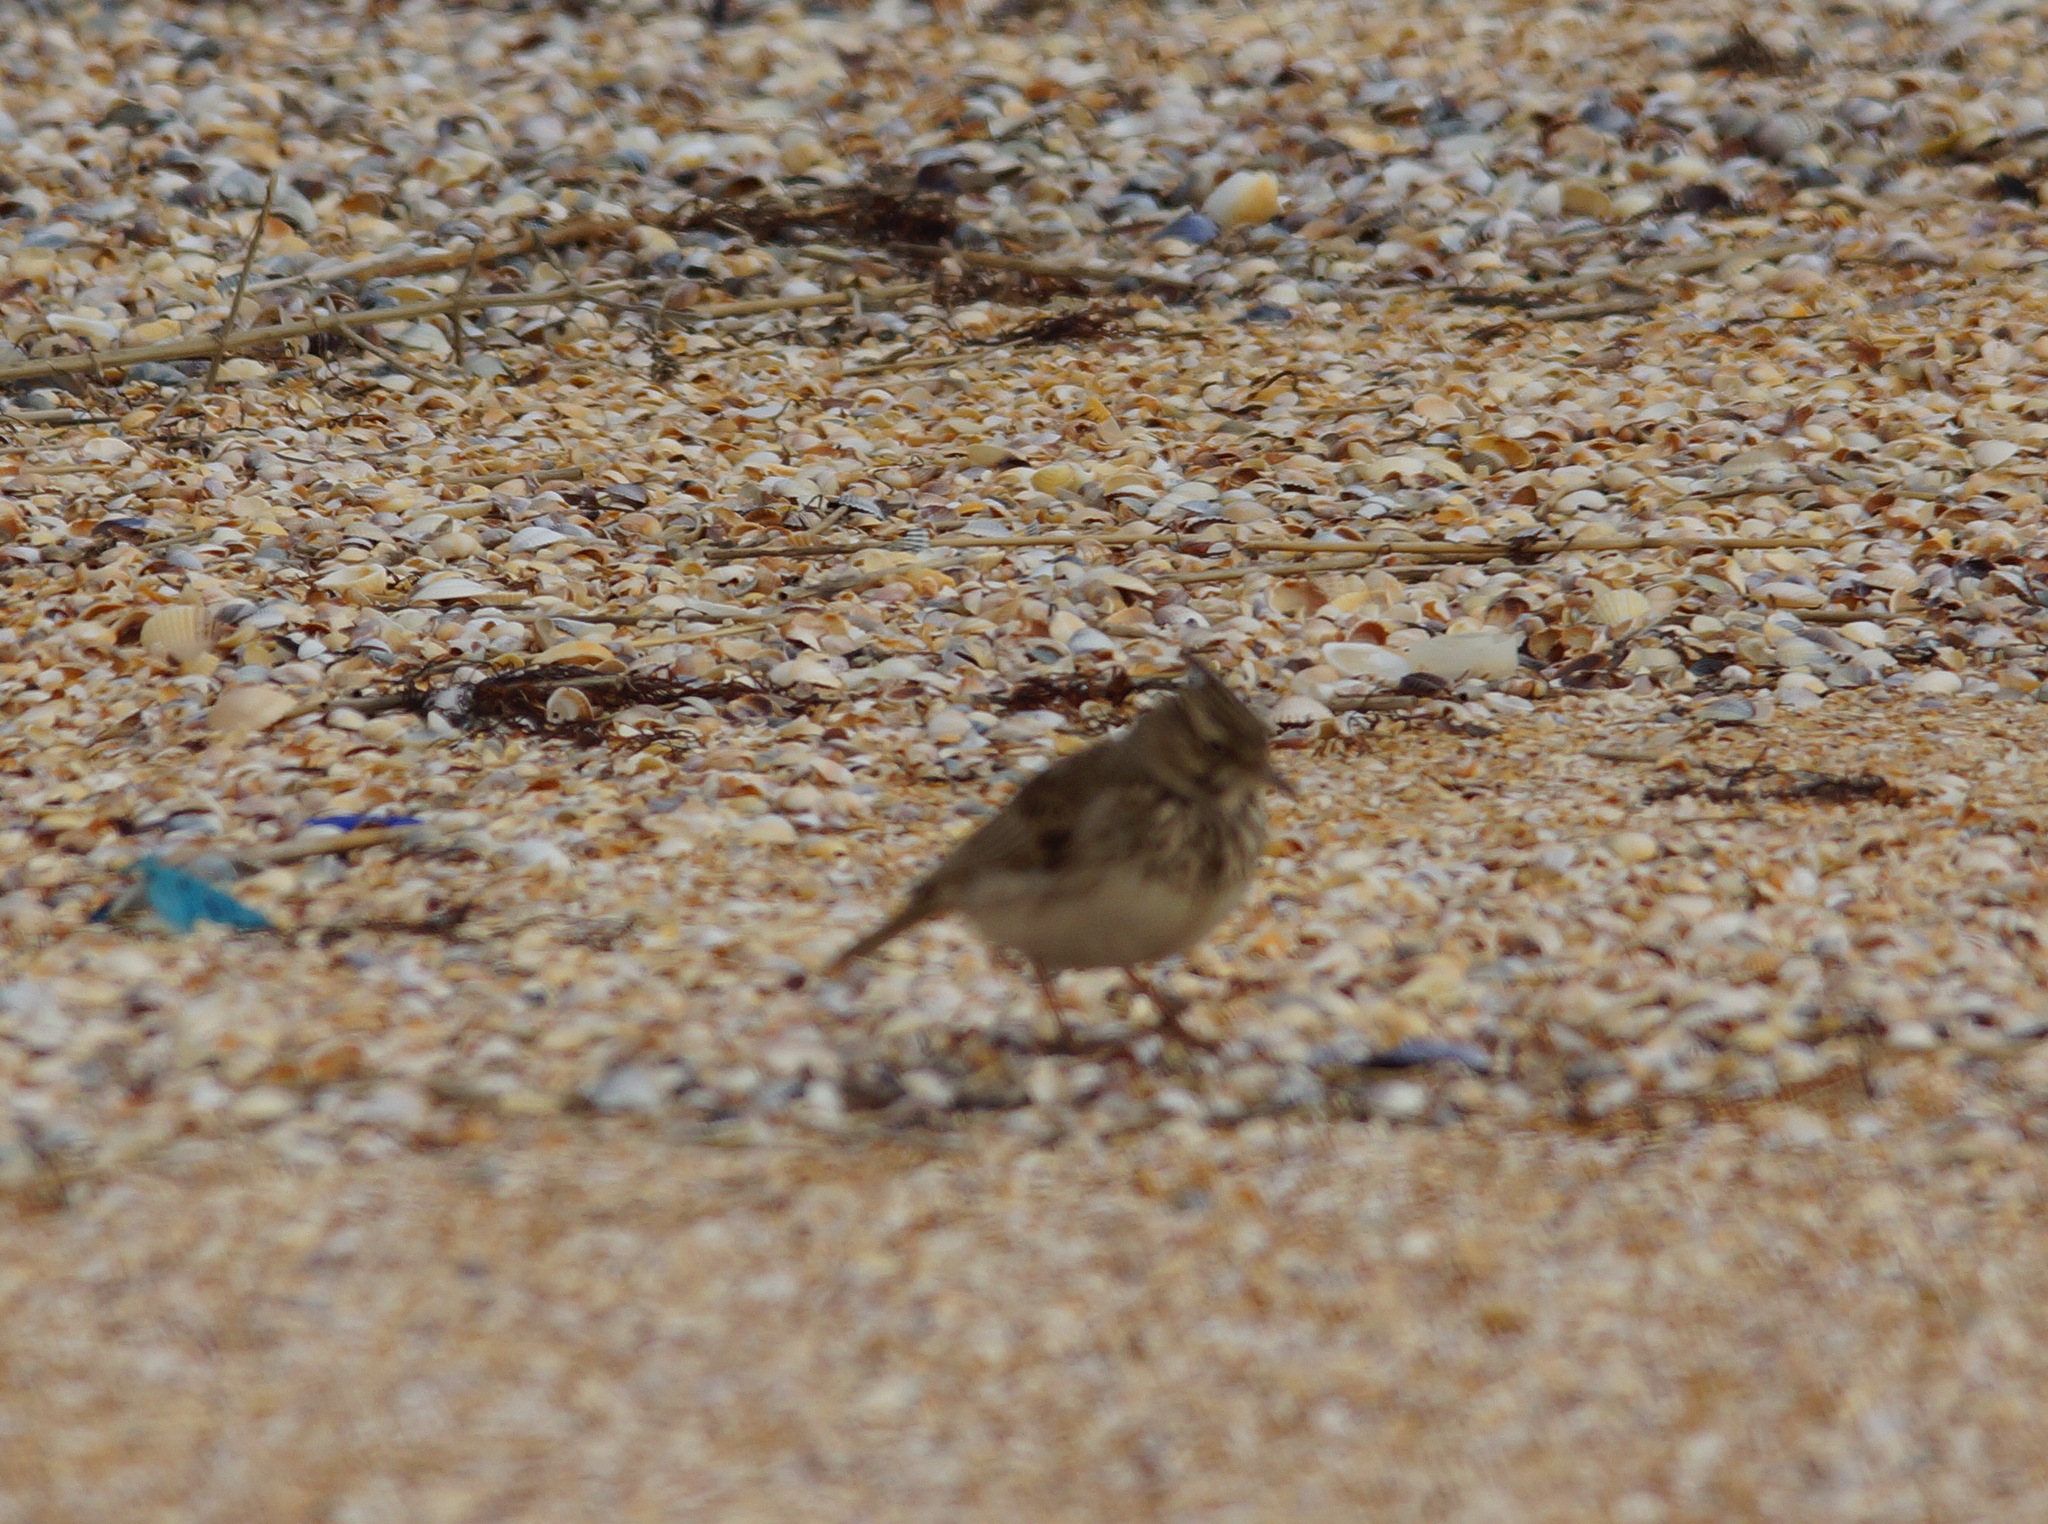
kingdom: Animalia
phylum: Chordata
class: Aves
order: Passeriformes
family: Alaudidae
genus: Galerida
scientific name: Galerida cristata
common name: Crested lark
